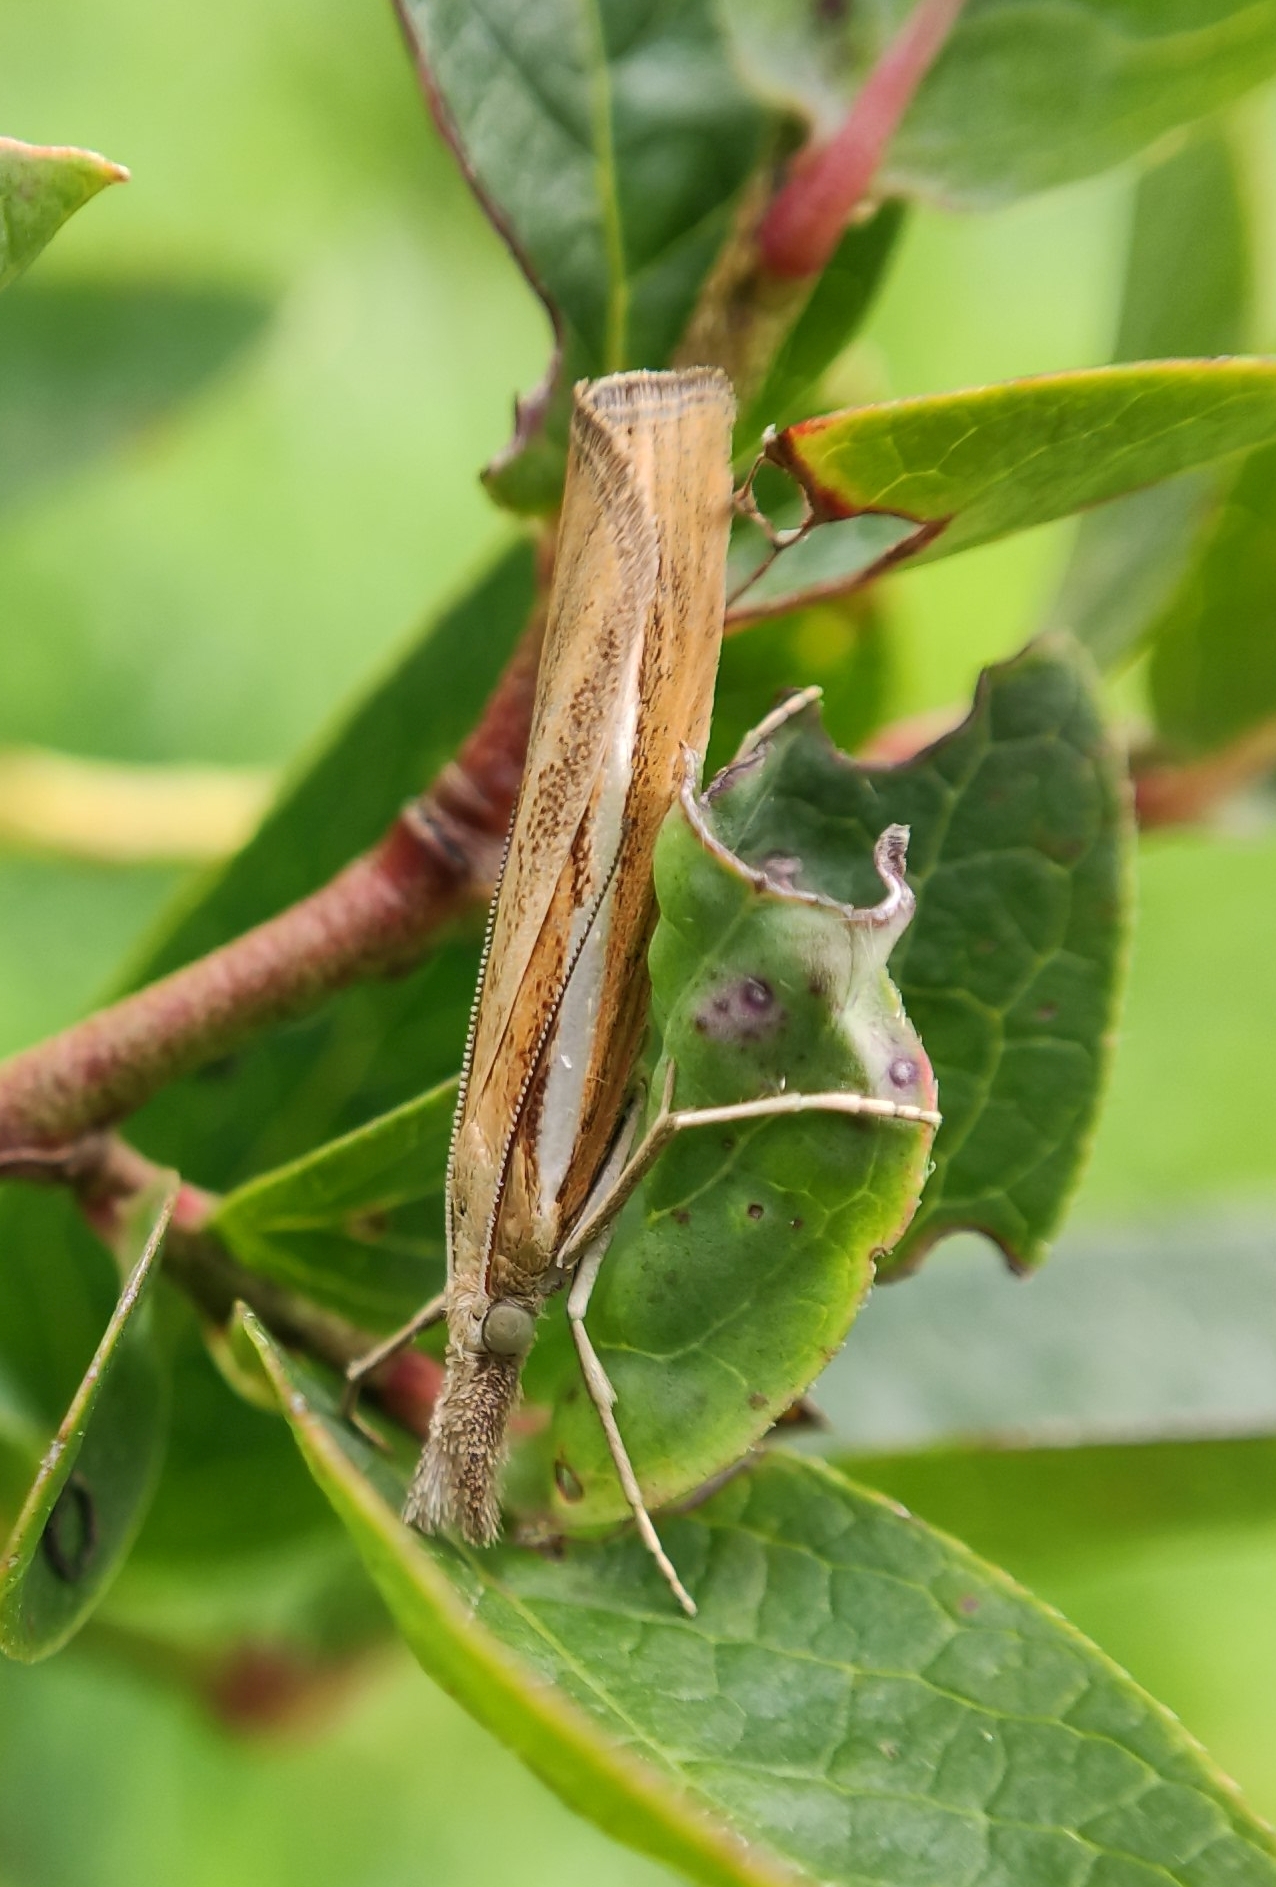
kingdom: Animalia
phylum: Arthropoda
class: Insecta
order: Lepidoptera
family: Crambidae
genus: Agriphila
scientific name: Agriphila tristellus
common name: Common grass-veneer
